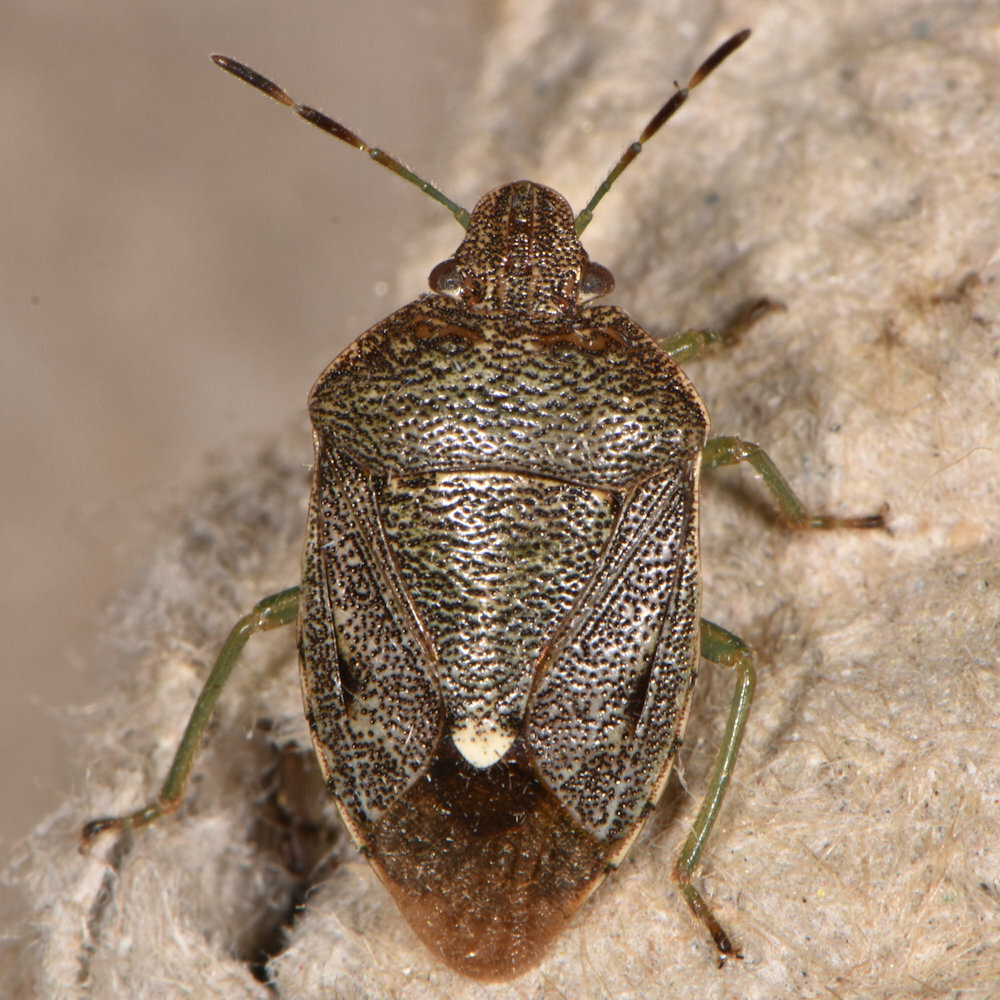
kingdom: Animalia
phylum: Arthropoda
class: Insecta
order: Hemiptera
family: Pentatomidae
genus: Banasa
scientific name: Banasa sordida
